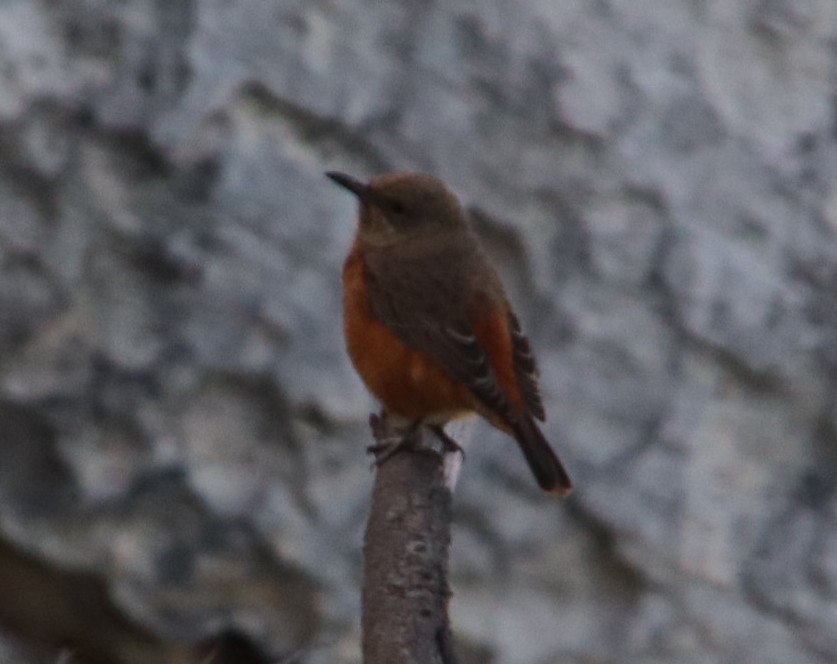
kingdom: Animalia
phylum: Chordata
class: Aves
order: Passeriformes
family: Muscicapidae
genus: Monticola
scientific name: Monticola rupestris
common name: Cape rock thrush
